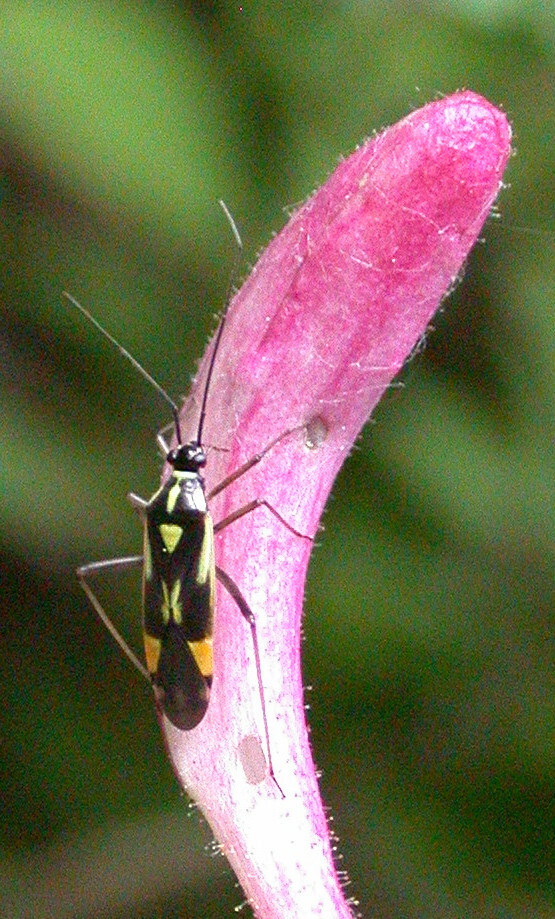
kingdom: Animalia
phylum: Arthropoda
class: Insecta
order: Hemiptera
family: Miridae
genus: Grypocoris
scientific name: Grypocoris stysi
